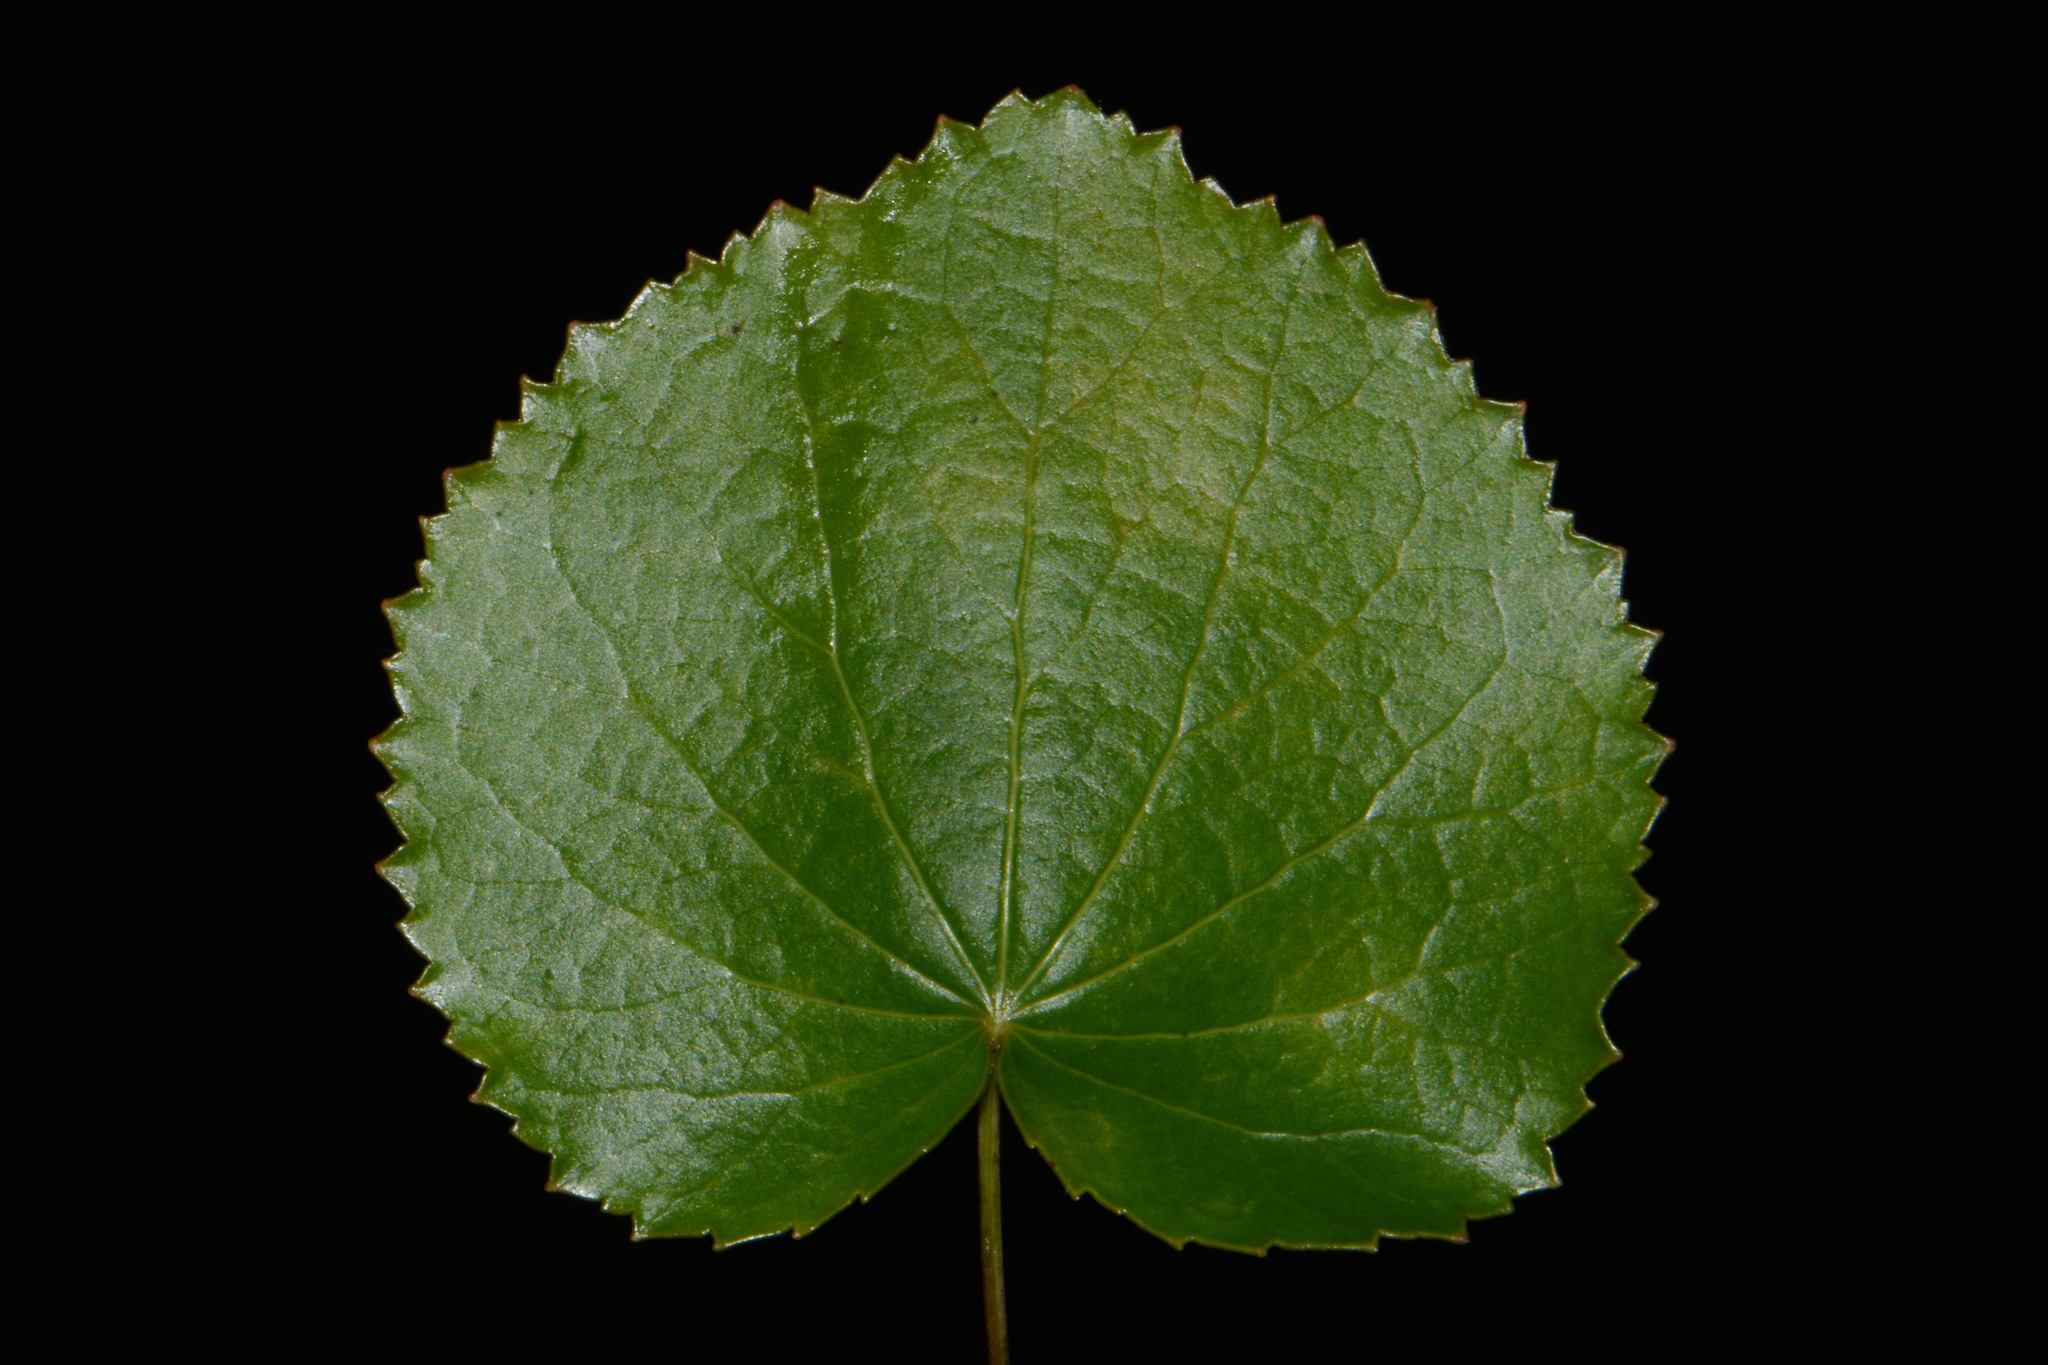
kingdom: Plantae
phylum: Tracheophyta
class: Magnoliopsida
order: Ericales
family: Diapensiaceae
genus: Galax
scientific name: Galax urceolata
